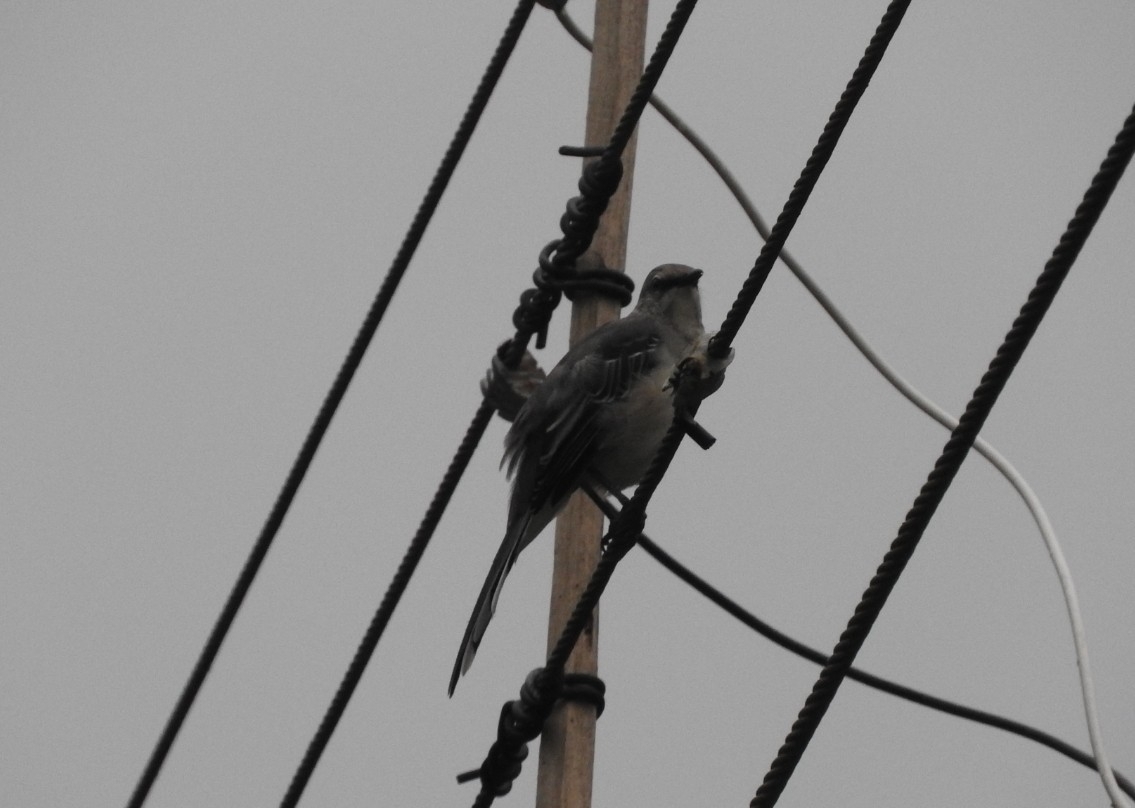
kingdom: Animalia
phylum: Chordata
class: Aves
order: Passeriformes
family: Mimidae
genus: Mimus
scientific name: Mimus gilvus
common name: Tropical mockingbird
